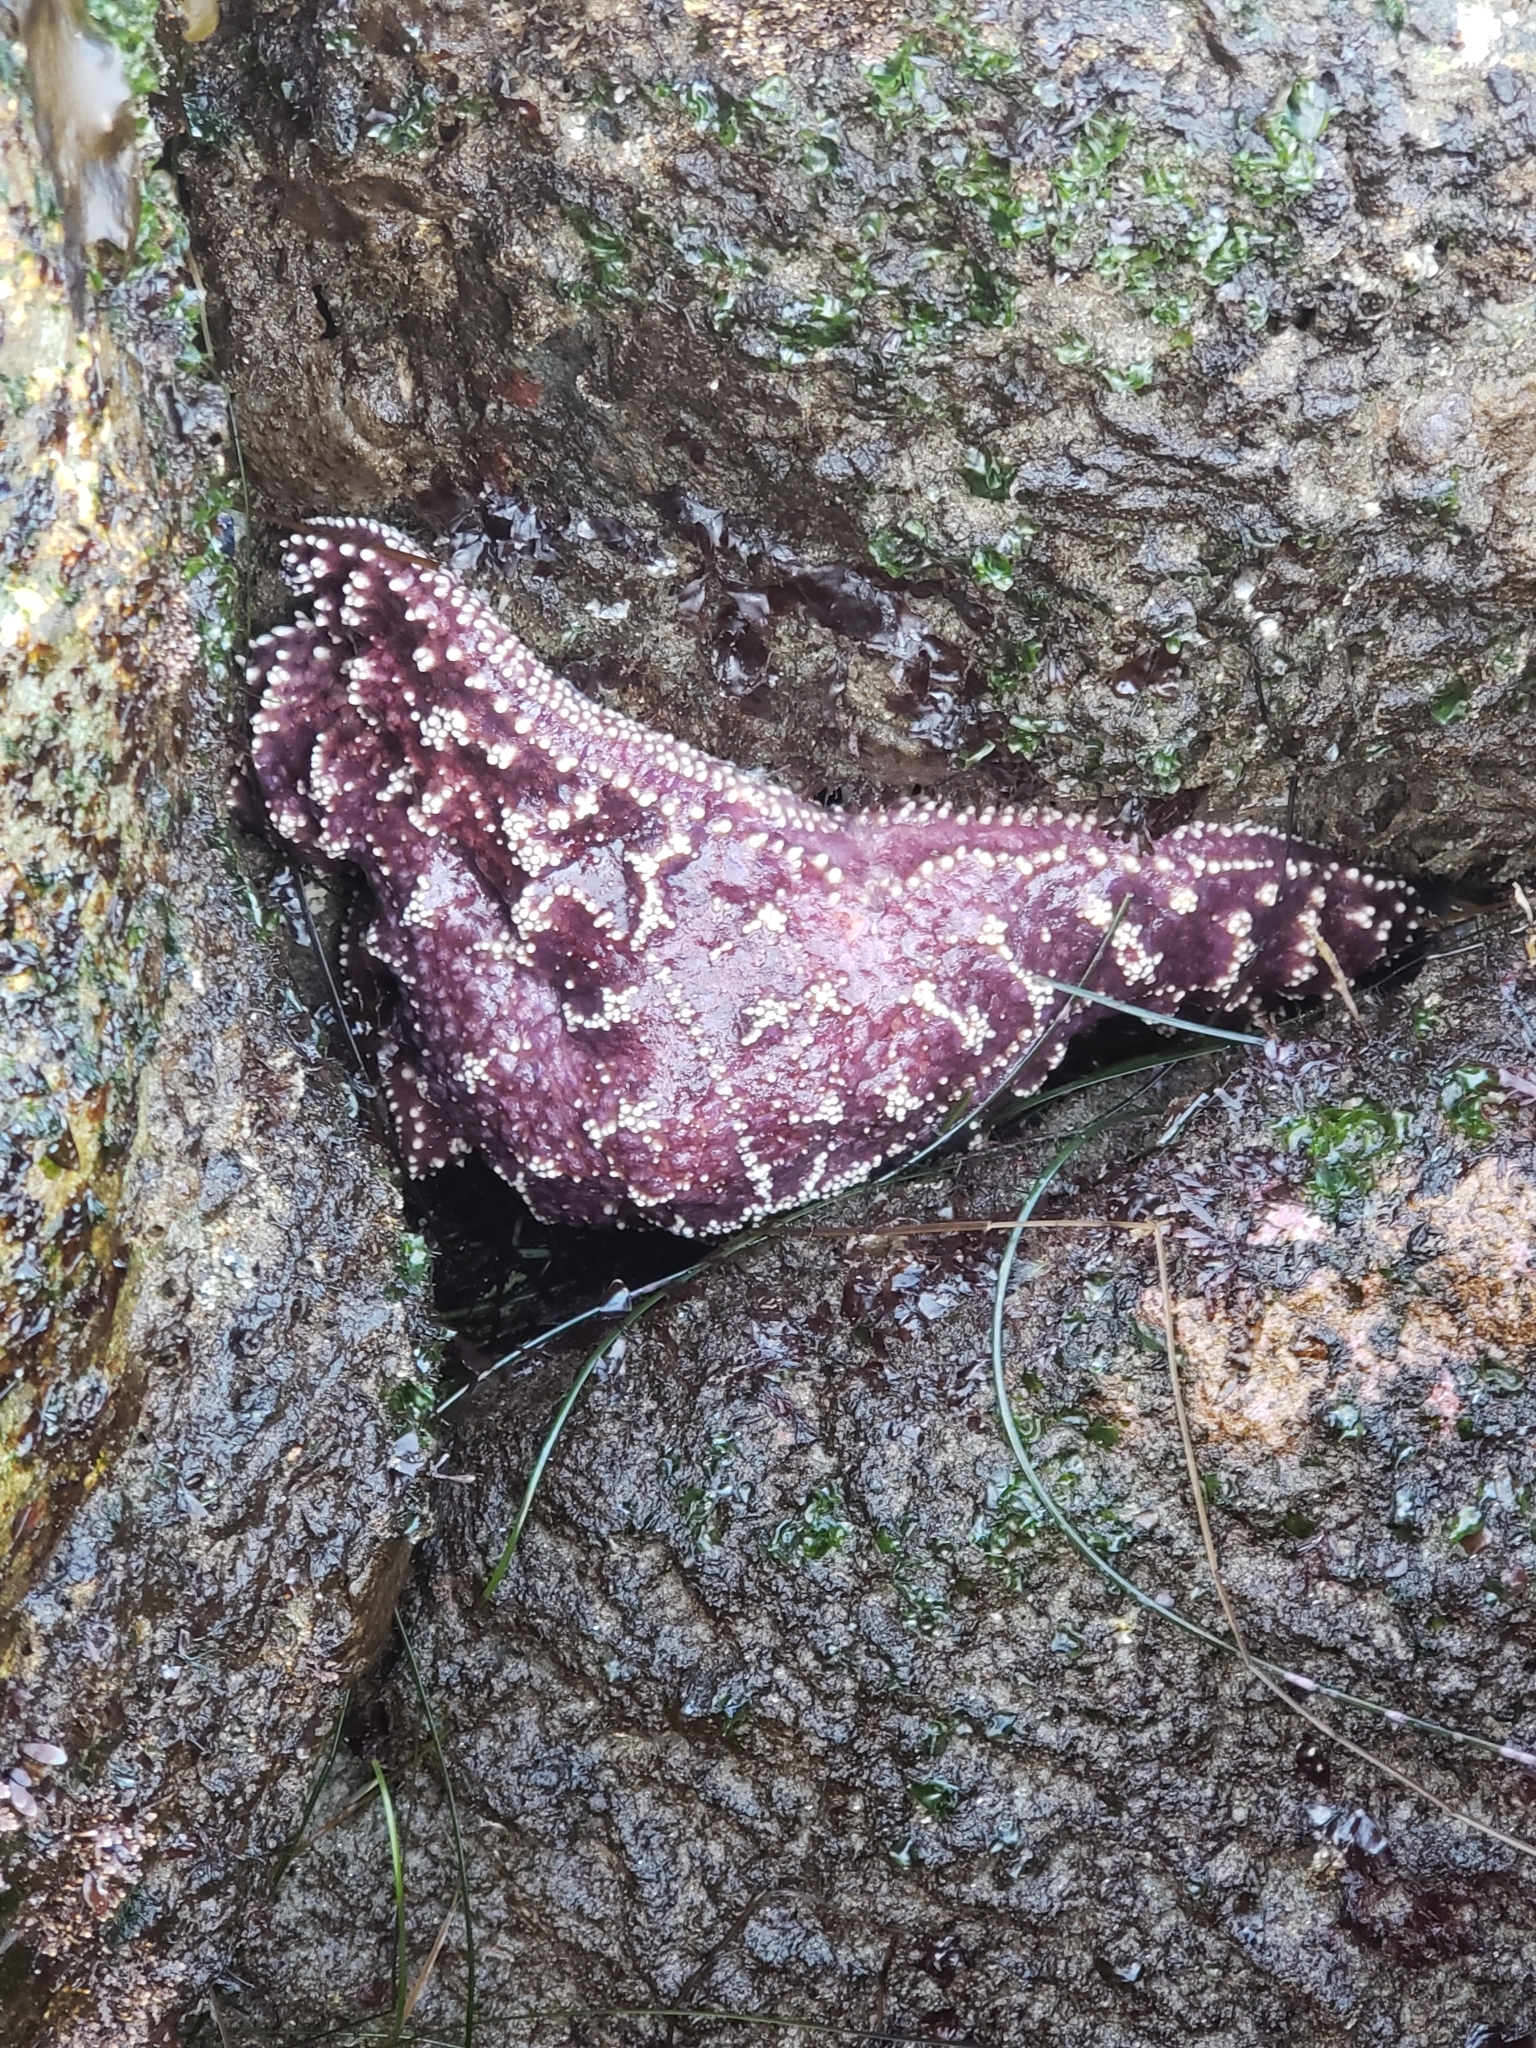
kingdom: Animalia
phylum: Echinodermata
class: Asteroidea
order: Forcipulatida
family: Asteriidae
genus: Pisaster
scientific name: Pisaster ochraceus
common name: Ochre stars
